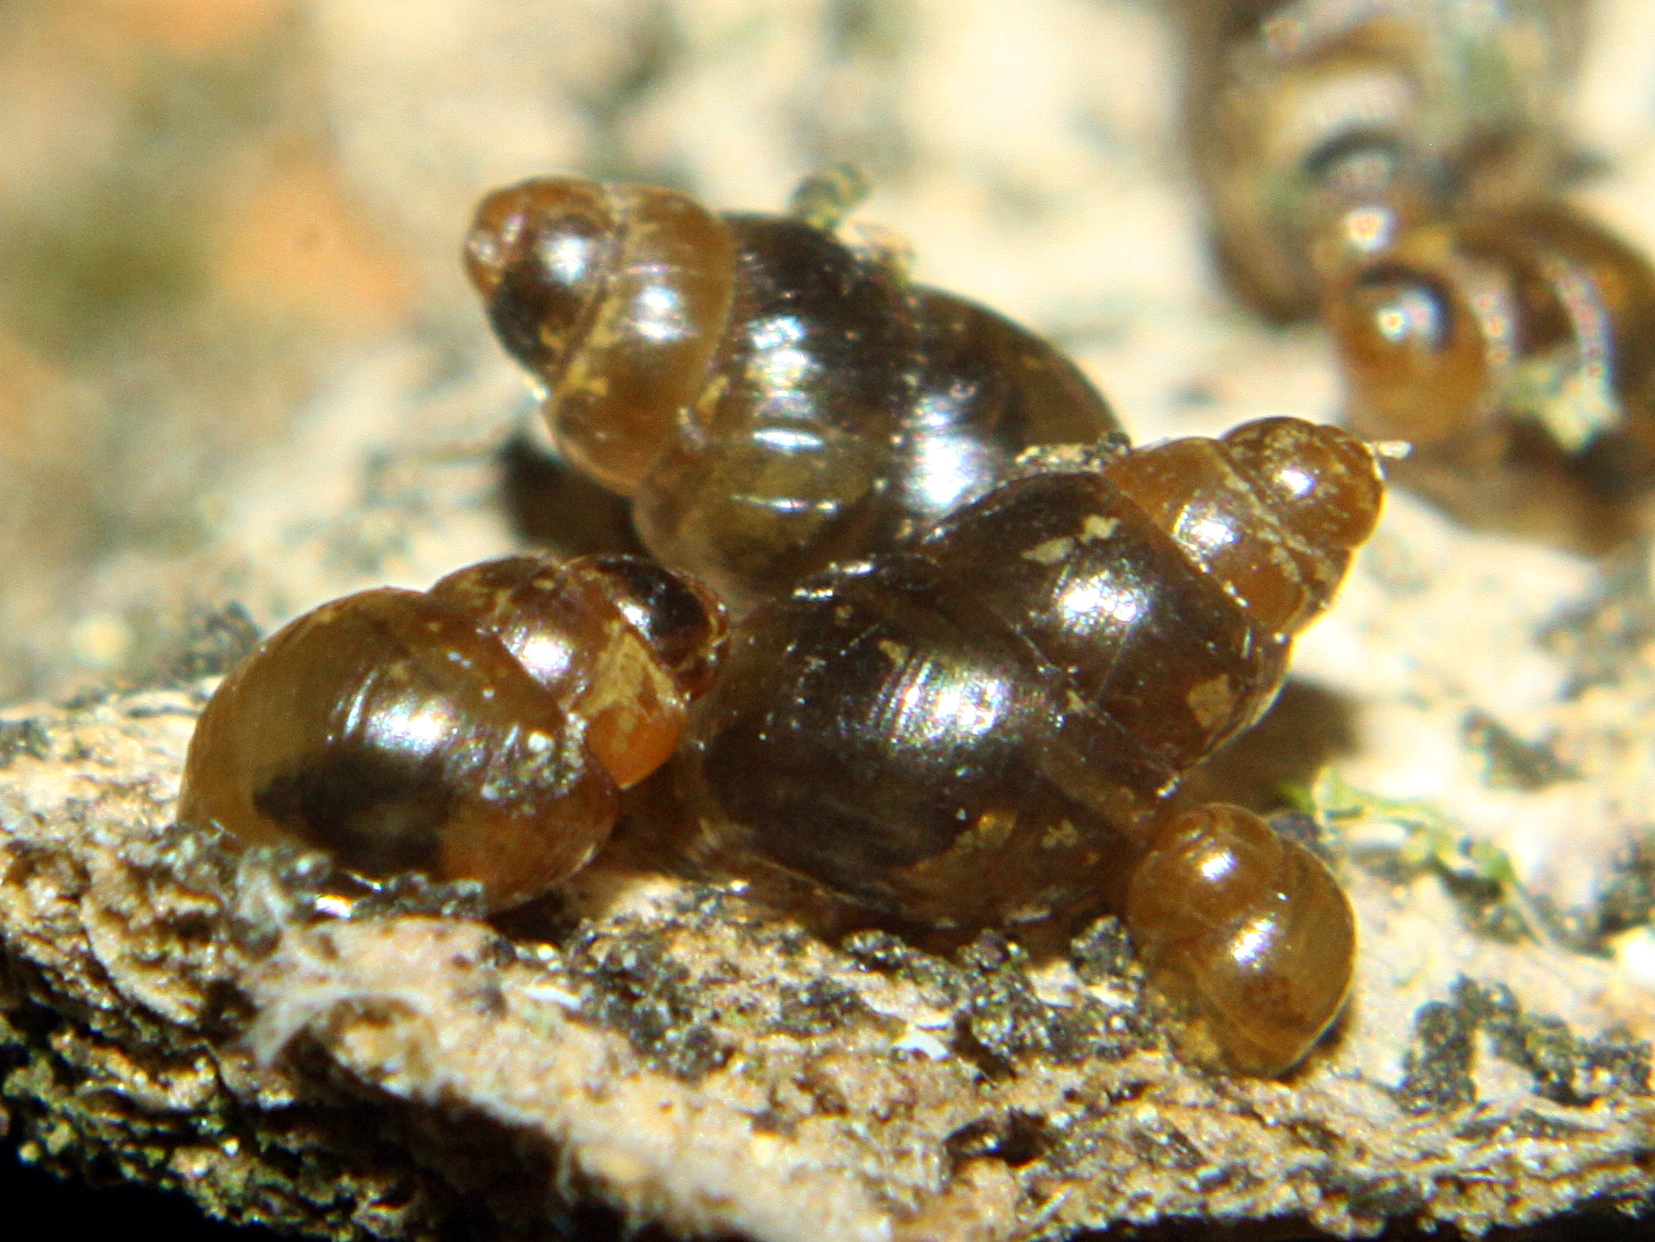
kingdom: Animalia
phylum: Mollusca
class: Gastropoda
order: Stylommatophora
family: Achatinellidae
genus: Tornatellinops
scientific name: Tornatellinops novoseelandicus
